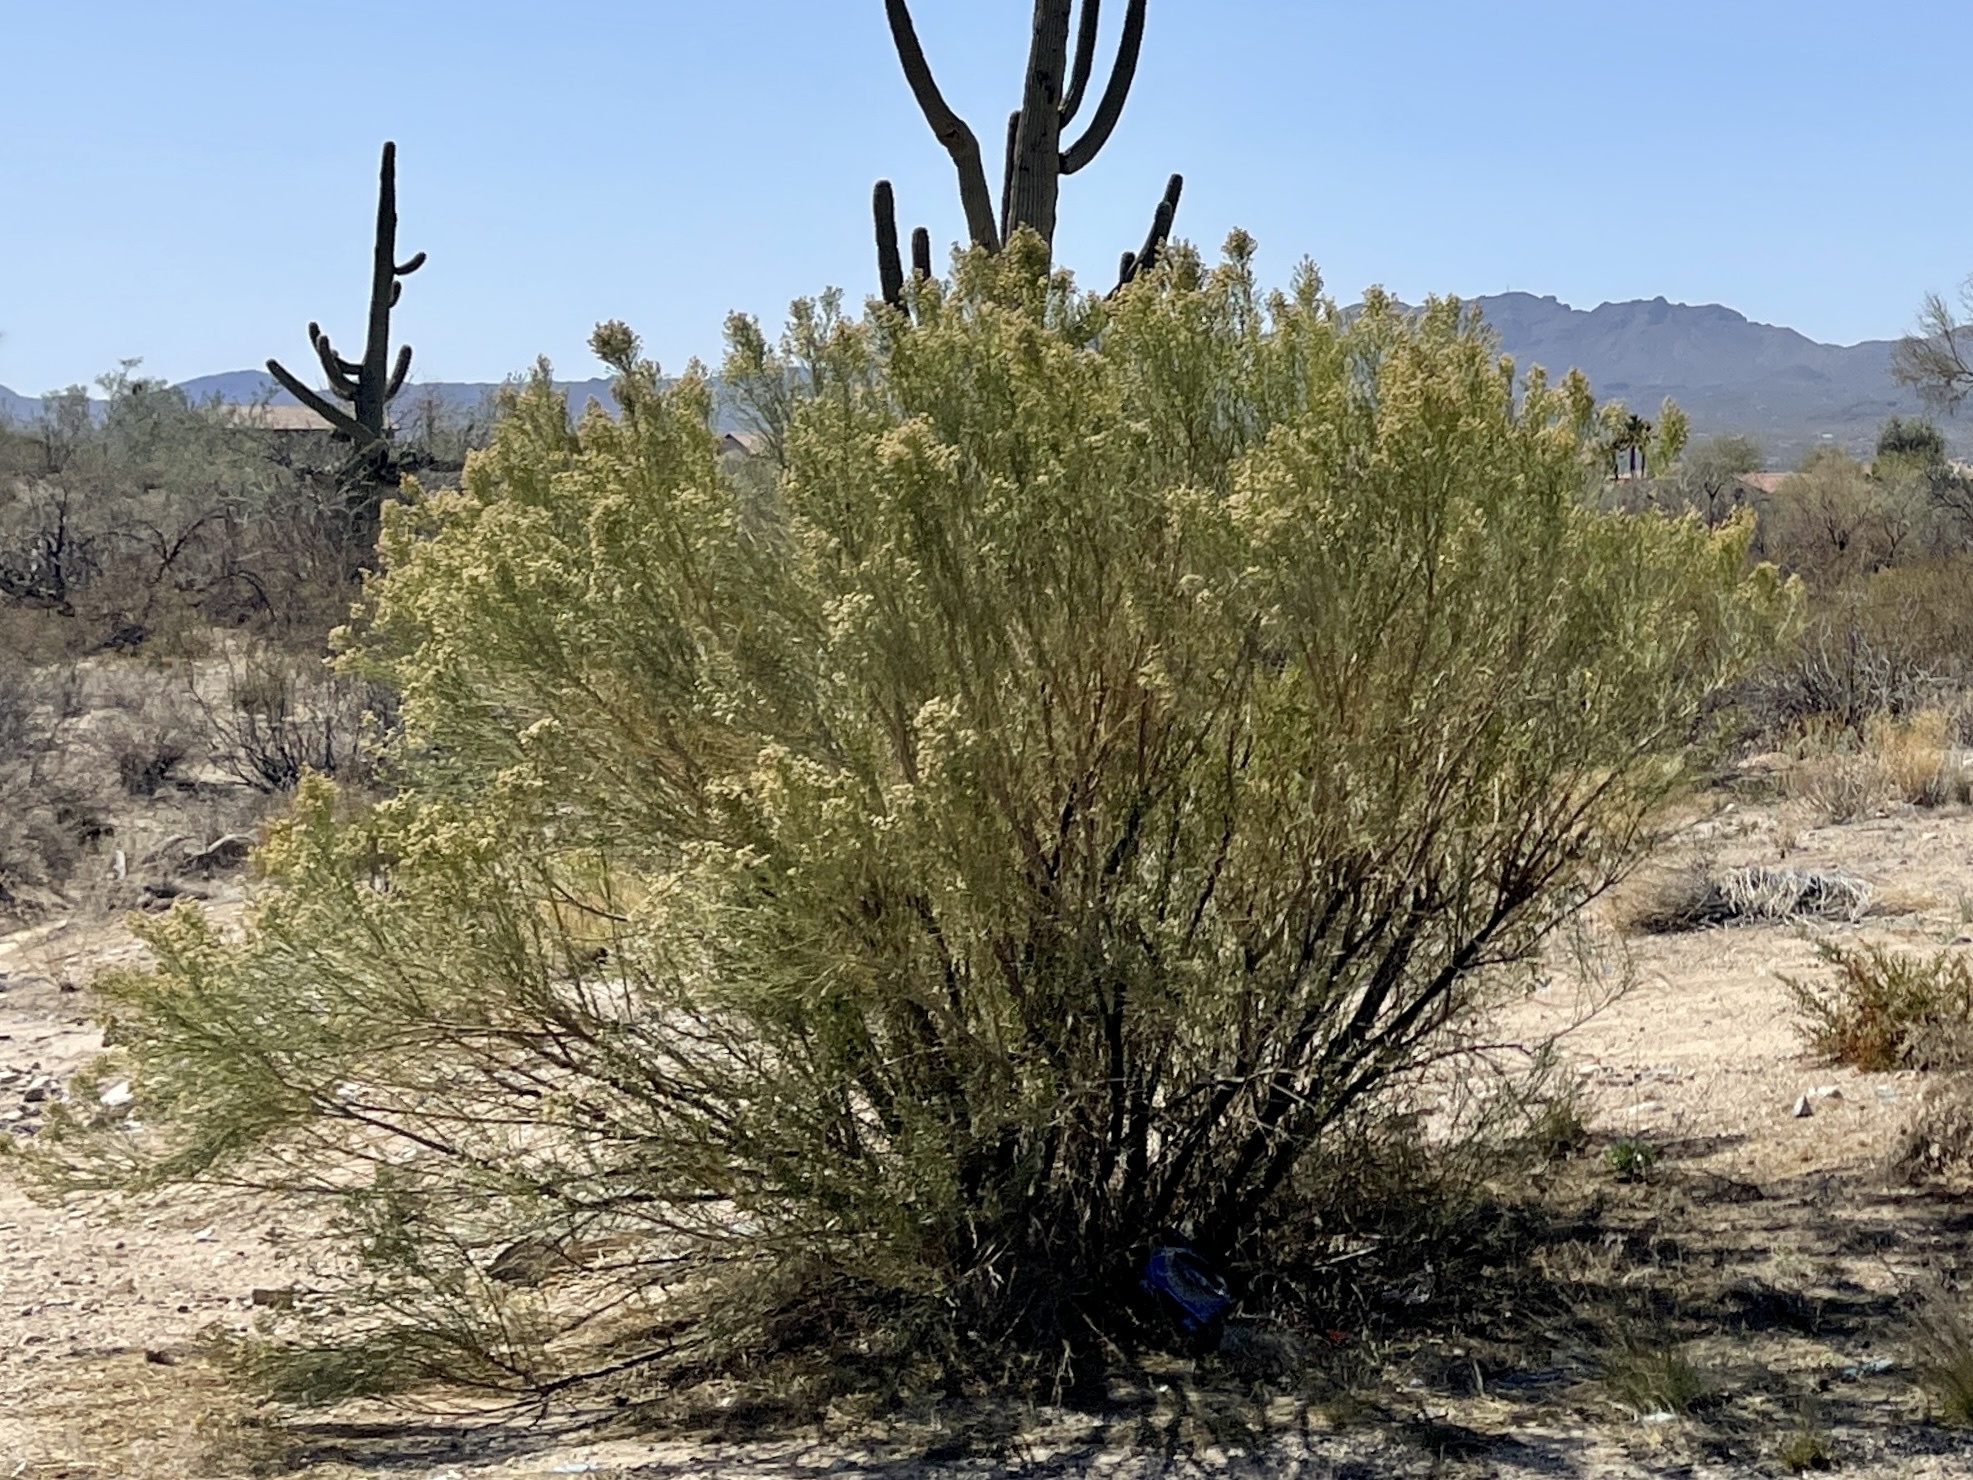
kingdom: Plantae
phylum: Tracheophyta
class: Magnoliopsida
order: Asterales
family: Asteraceae
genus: Baccharis
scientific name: Baccharis sarothroides
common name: Desert-broom
